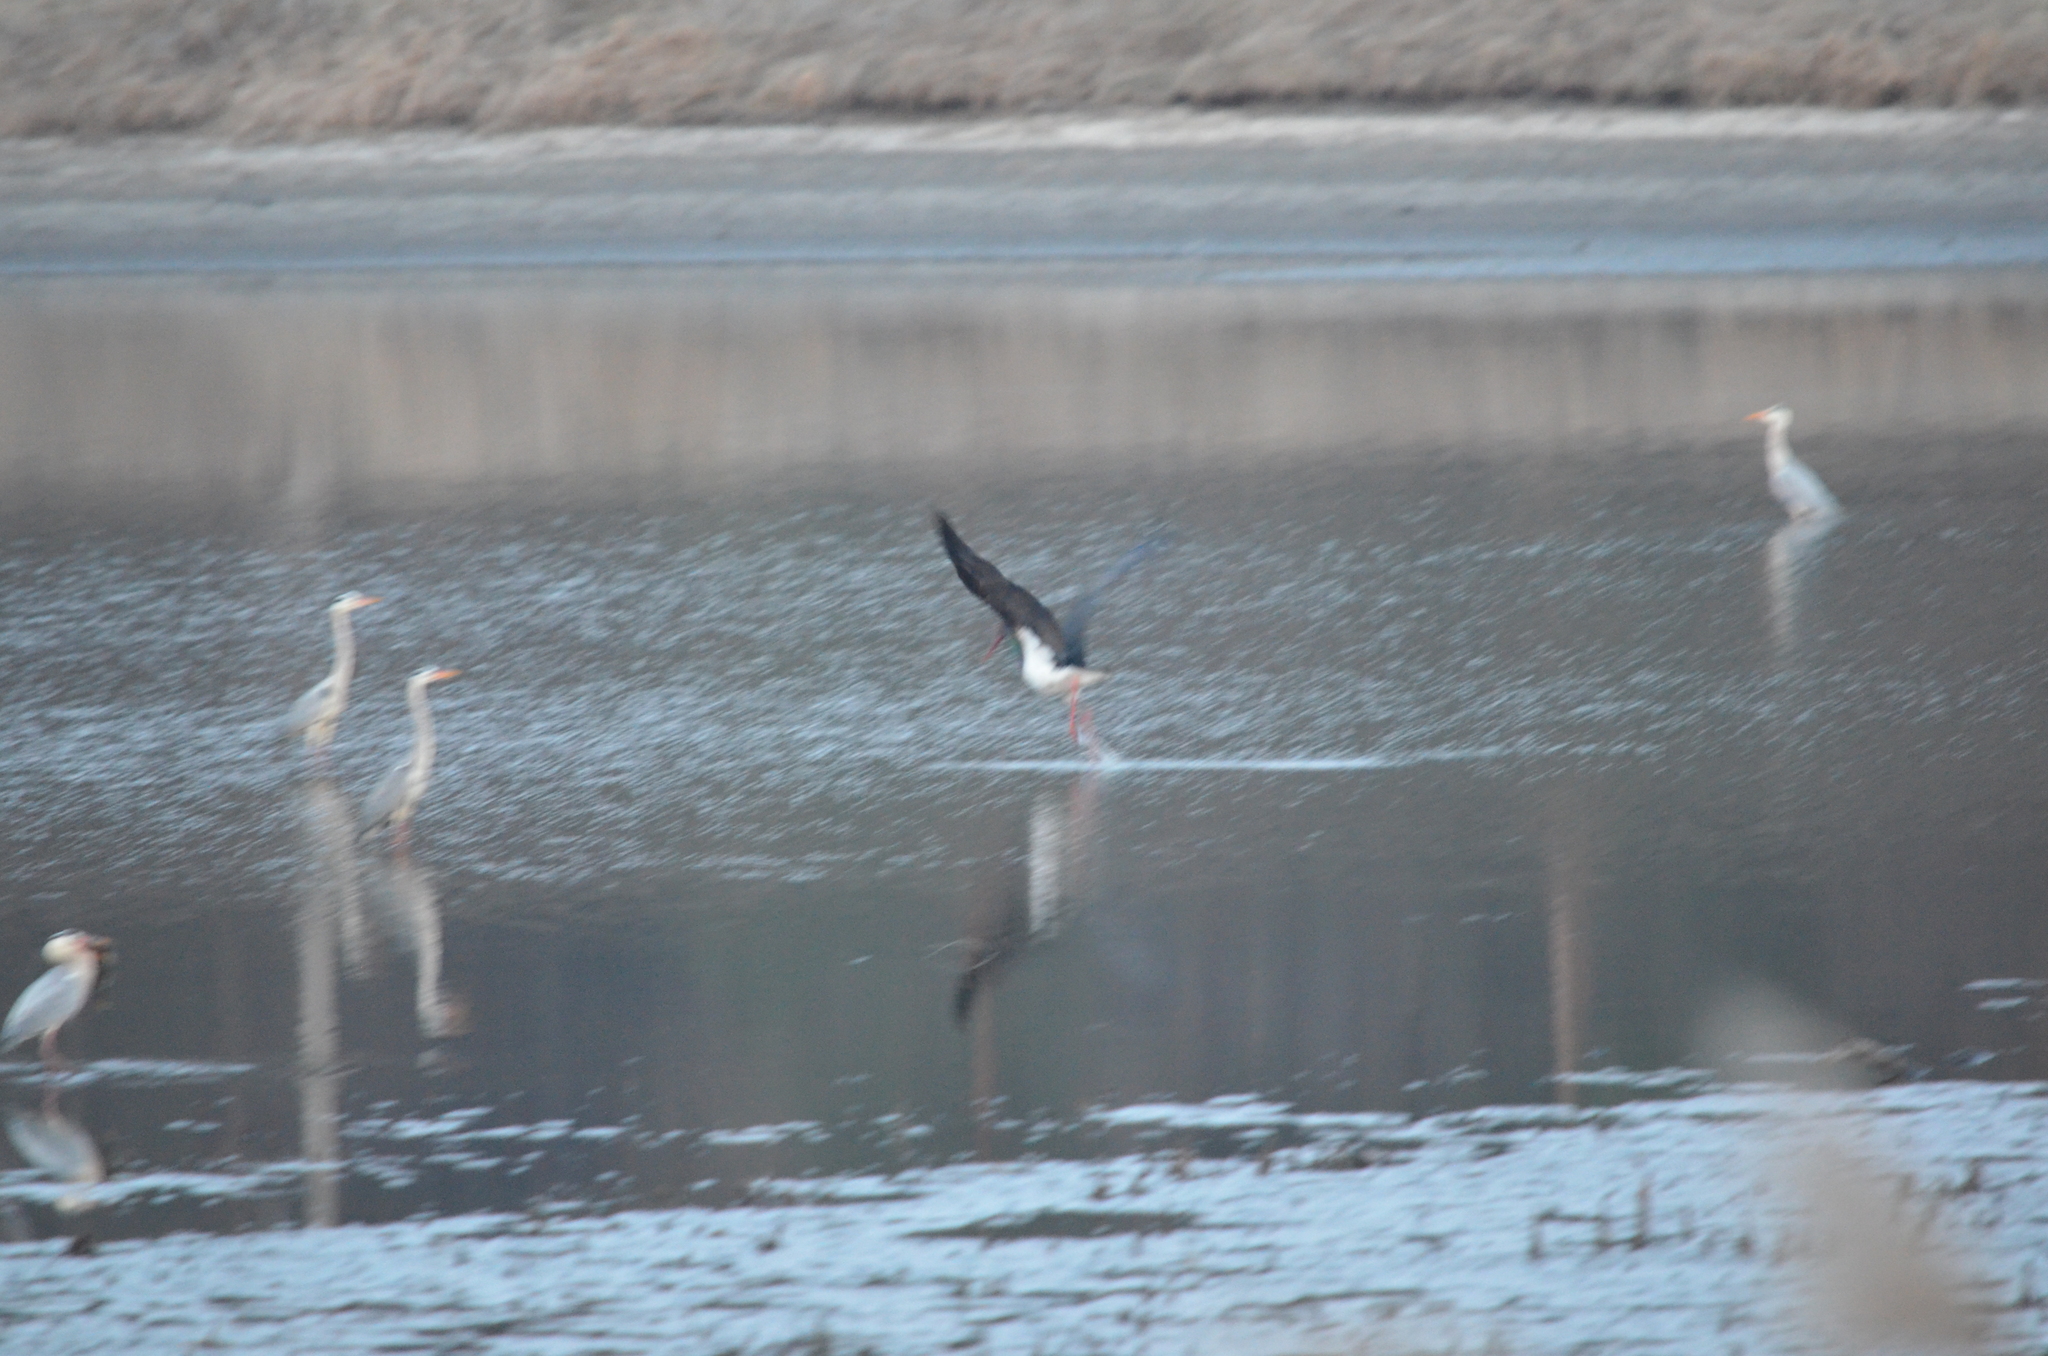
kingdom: Animalia
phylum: Chordata
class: Aves
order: Ciconiiformes
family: Ciconiidae
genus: Ciconia
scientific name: Ciconia nigra
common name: Black stork
